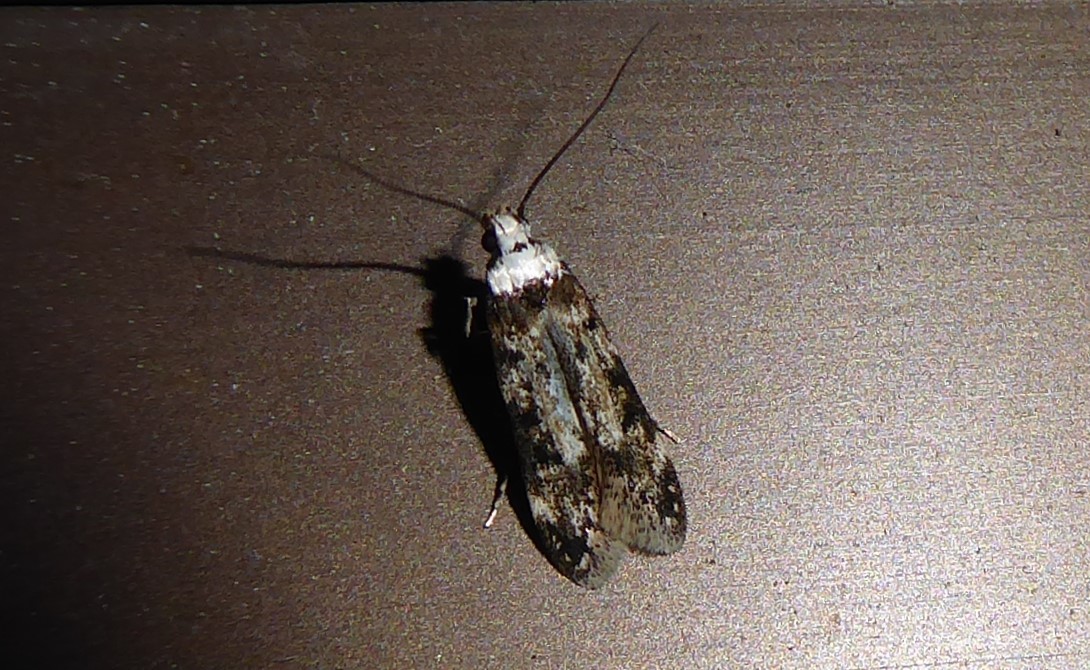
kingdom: Animalia
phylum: Arthropoda
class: Insecta
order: Lepidoptera
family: Oecophoridae
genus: Endrosis
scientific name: Endrosis sarcitrella
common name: White-shouldered house moth
